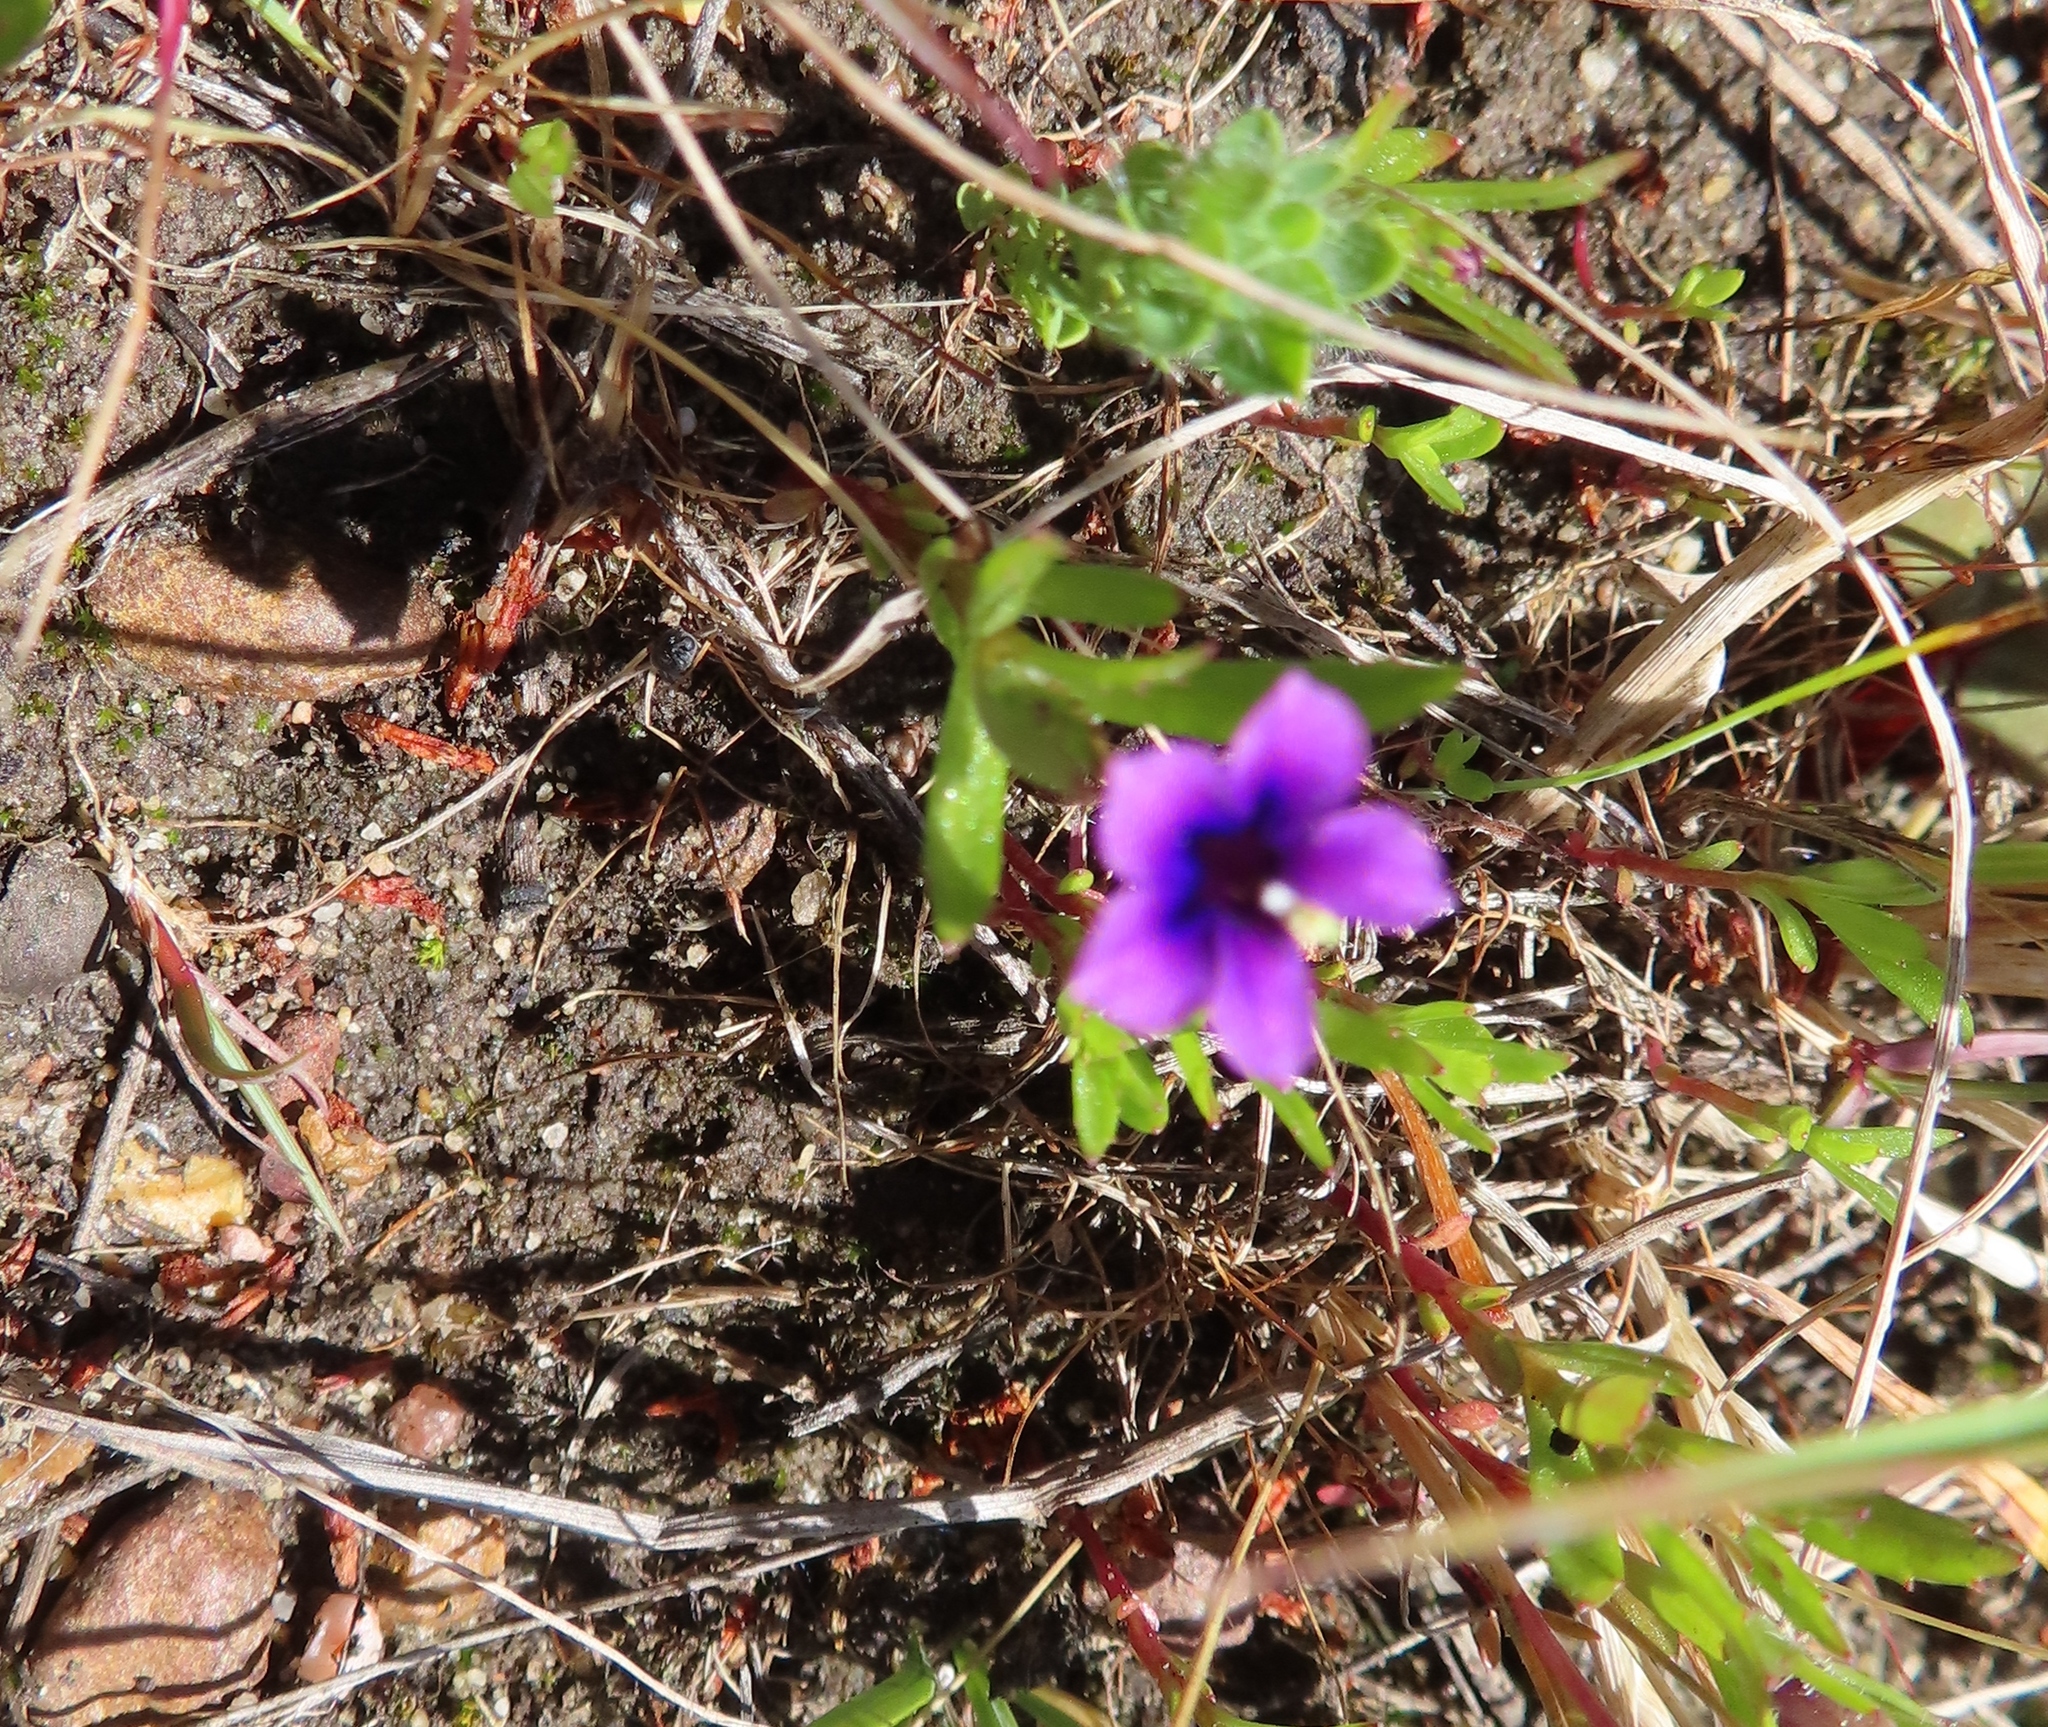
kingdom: Plantae
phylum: Tracheophyta
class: Magnoliopsida
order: Asterales
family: Campanulaceae
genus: Monopsis
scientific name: Monopsis debilis
